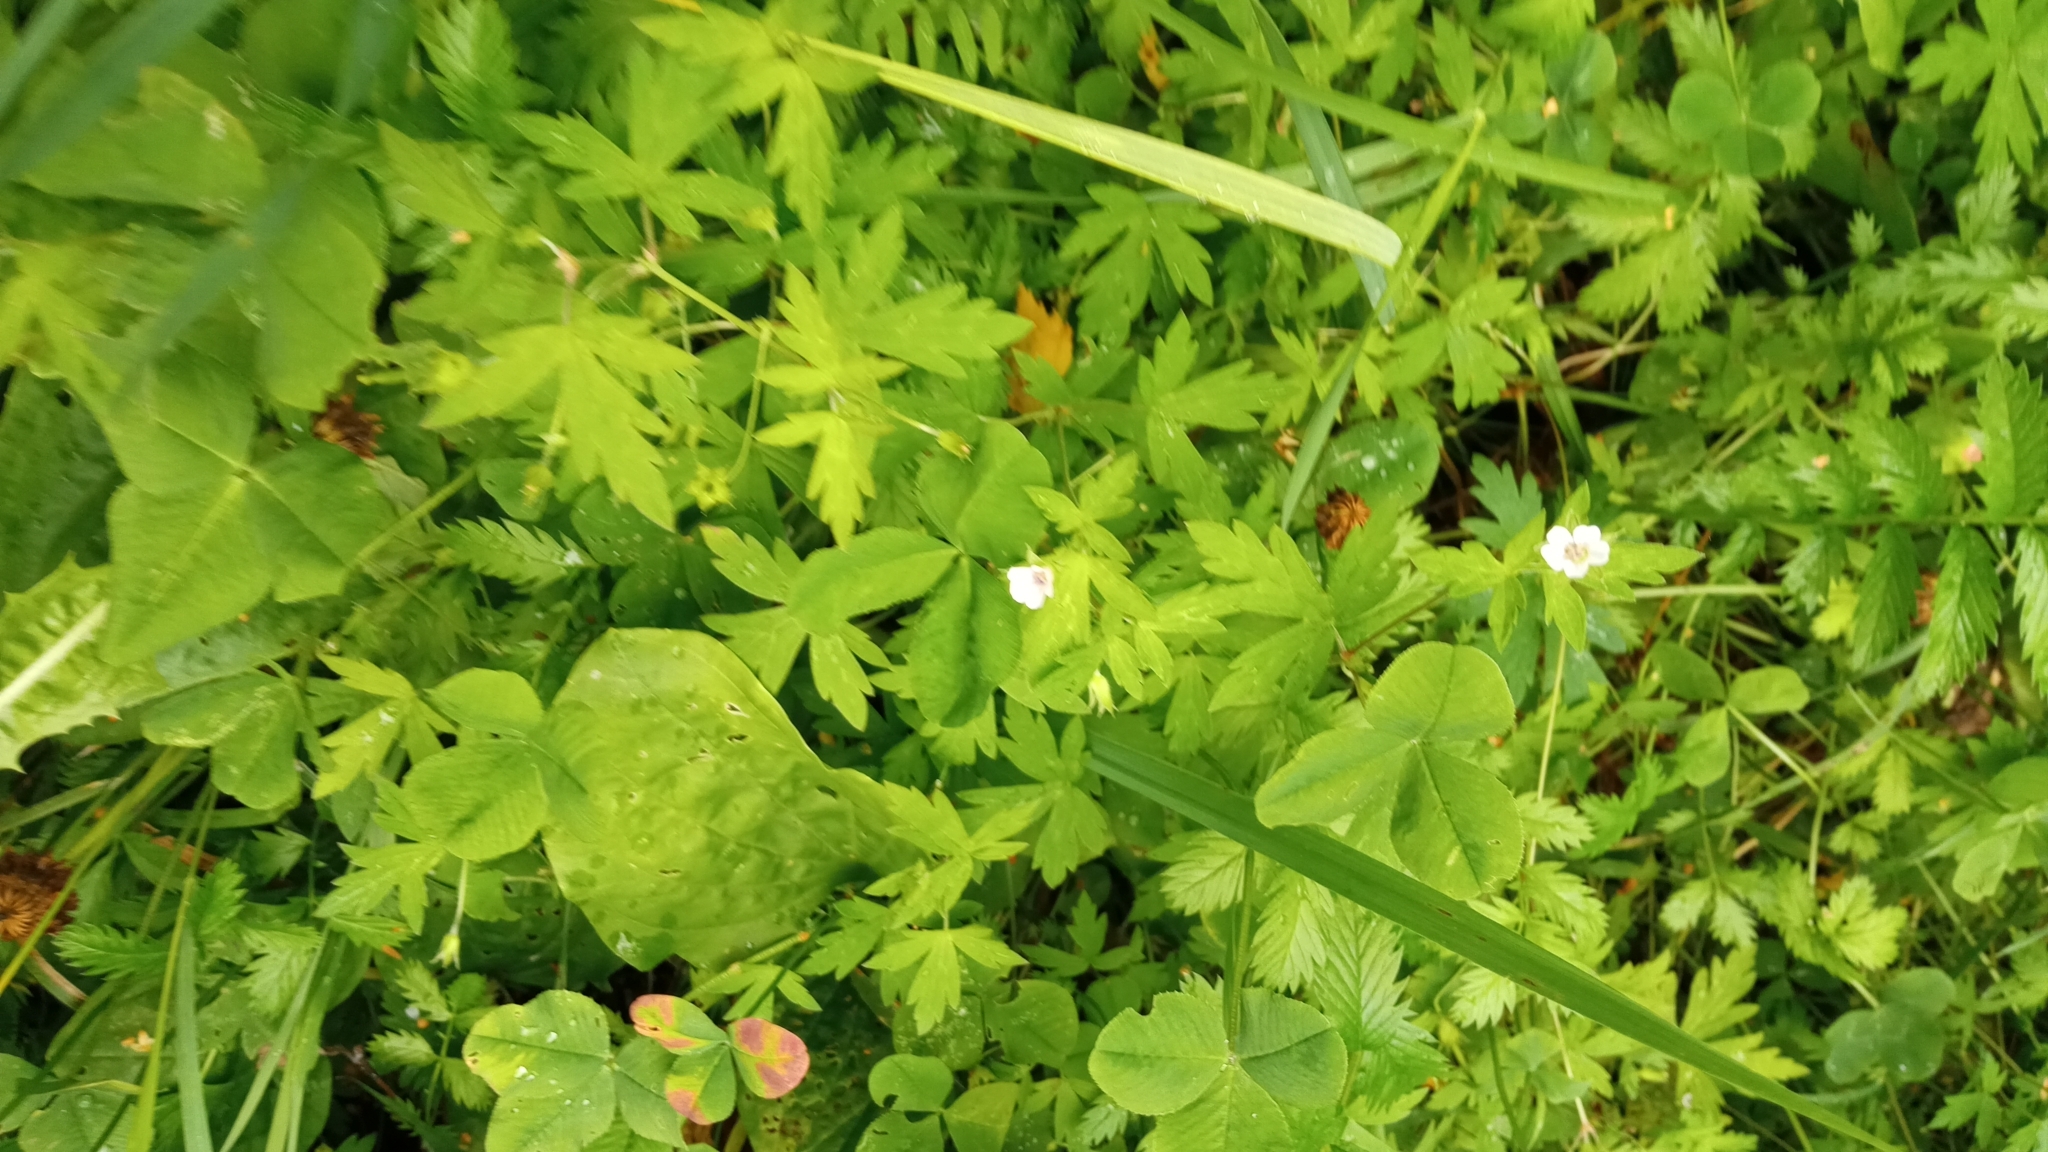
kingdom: Plantae
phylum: Tracheophyta
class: Magnoliopsida
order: Geraniales
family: Geraniaceae
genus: Geranium
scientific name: Geranium sibiricum
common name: Siberian crane's-bill
